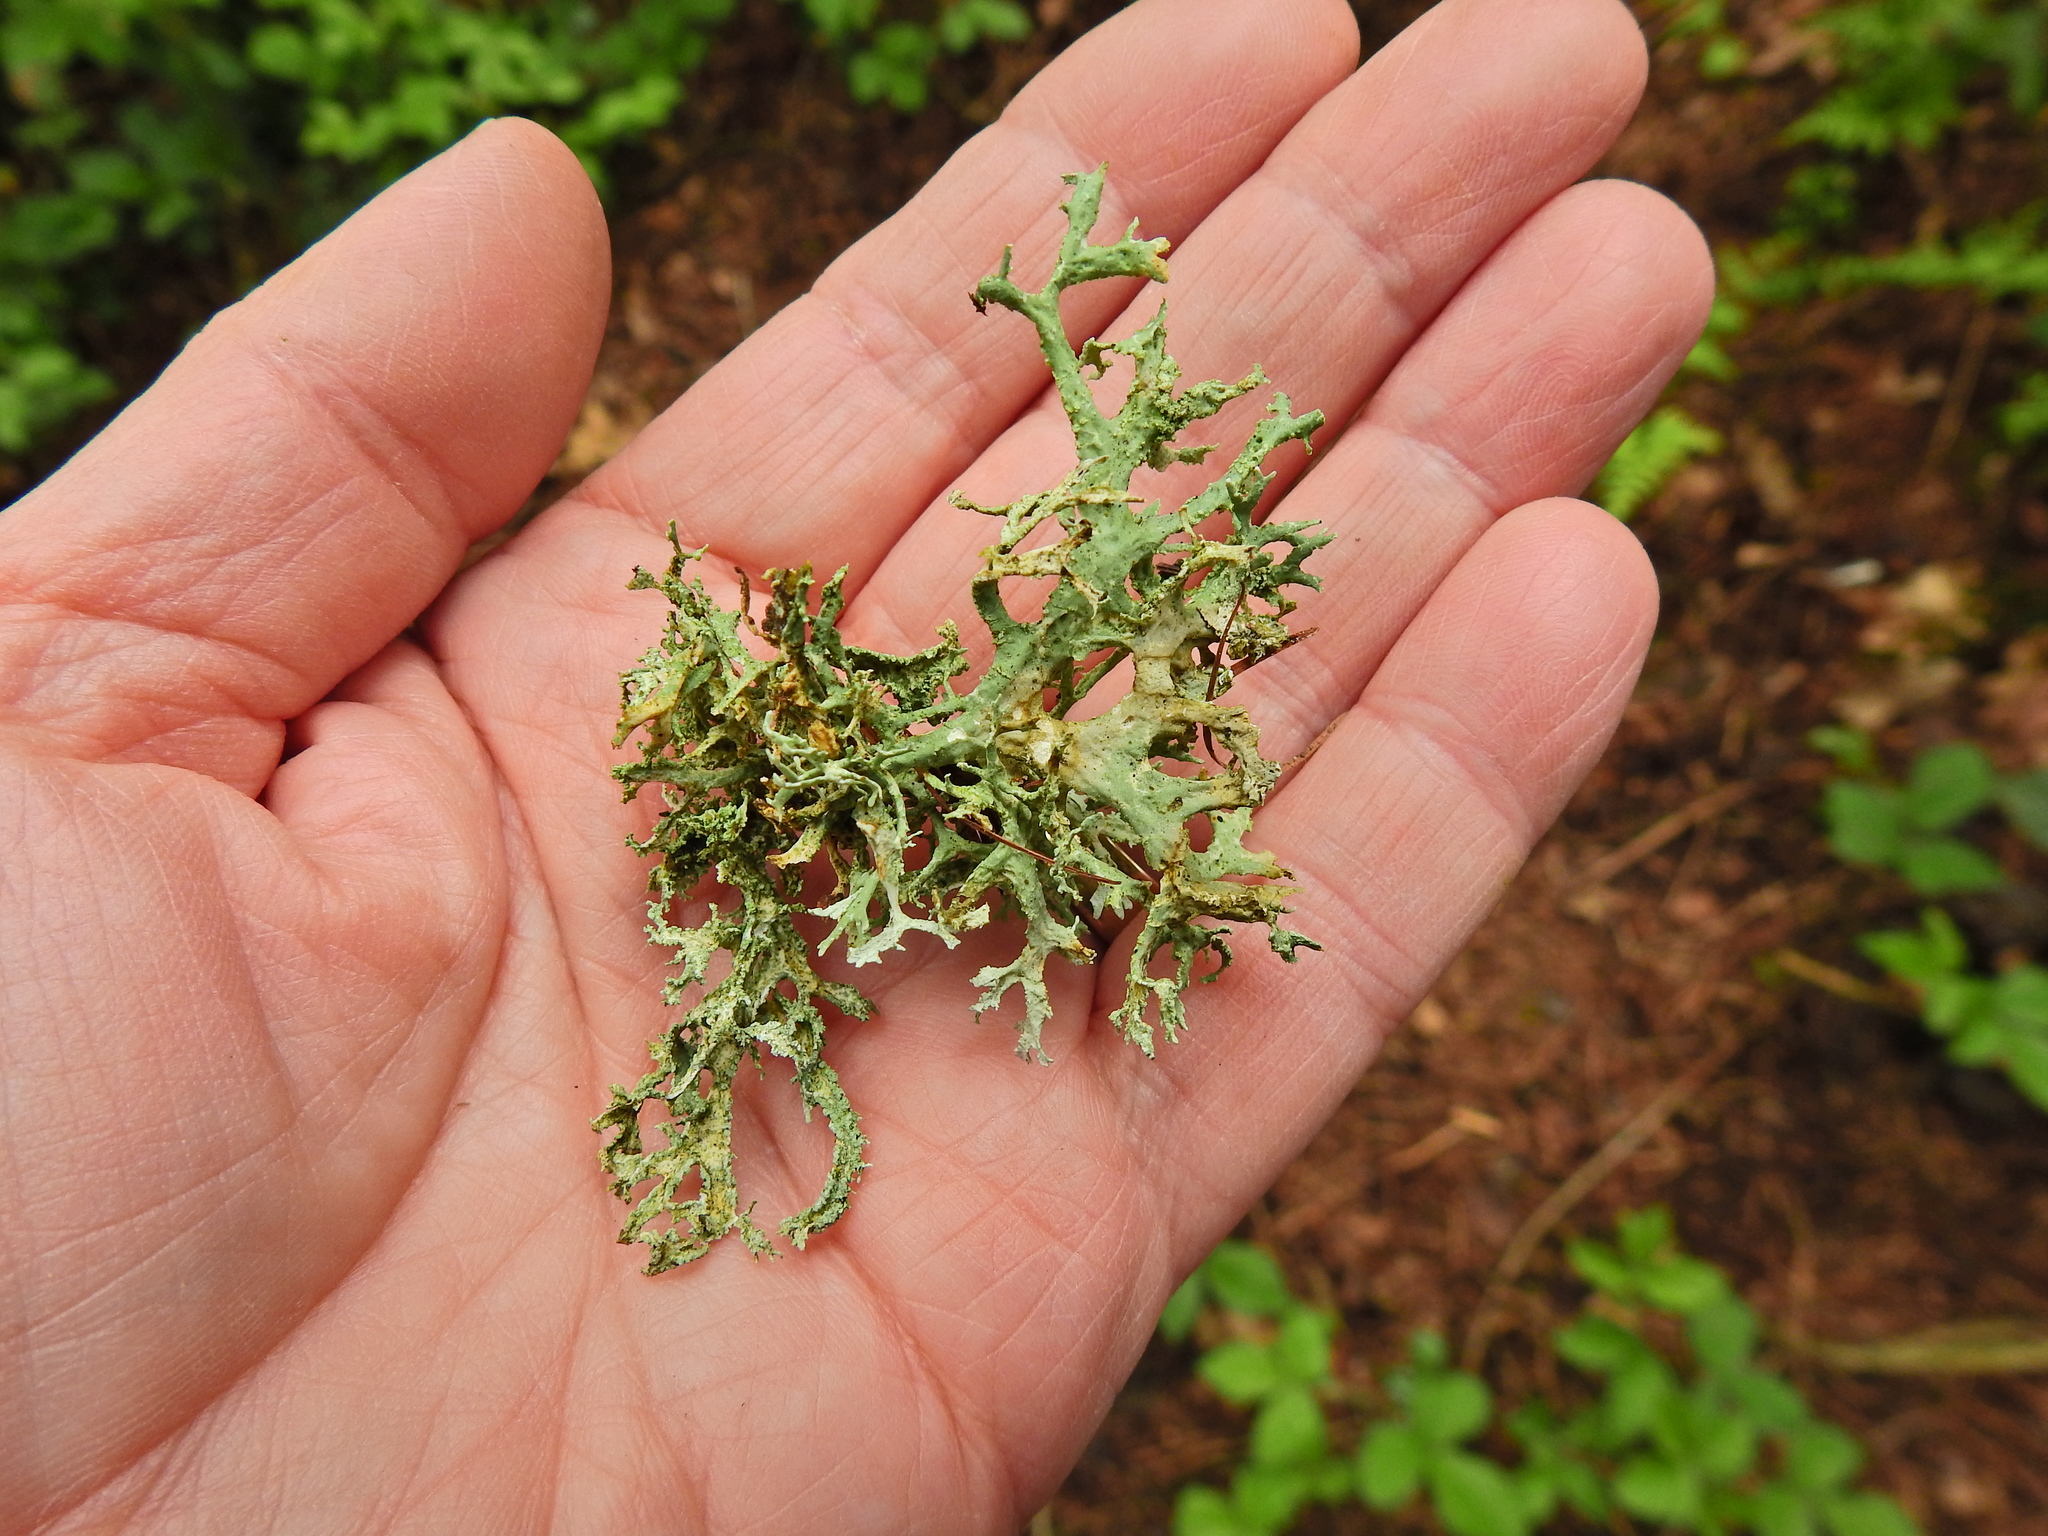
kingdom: Fungi
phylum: Ascomycota
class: Lecanoromycetes
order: Lecanorales
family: Parmeliaceae
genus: Evernia
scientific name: Evernia prunastri
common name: Oak moss
